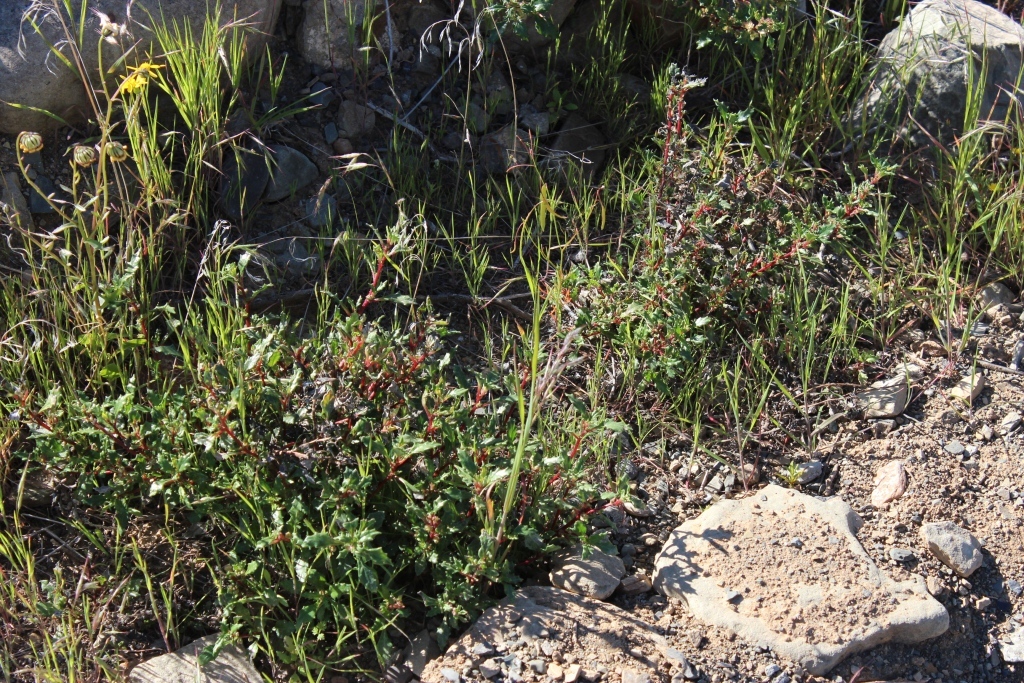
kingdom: Plantae
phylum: Tracheophyta
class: Magnoliopsida
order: Rosales
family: Urticaceae
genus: Forsskaolea
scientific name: Forsskaolea candida
